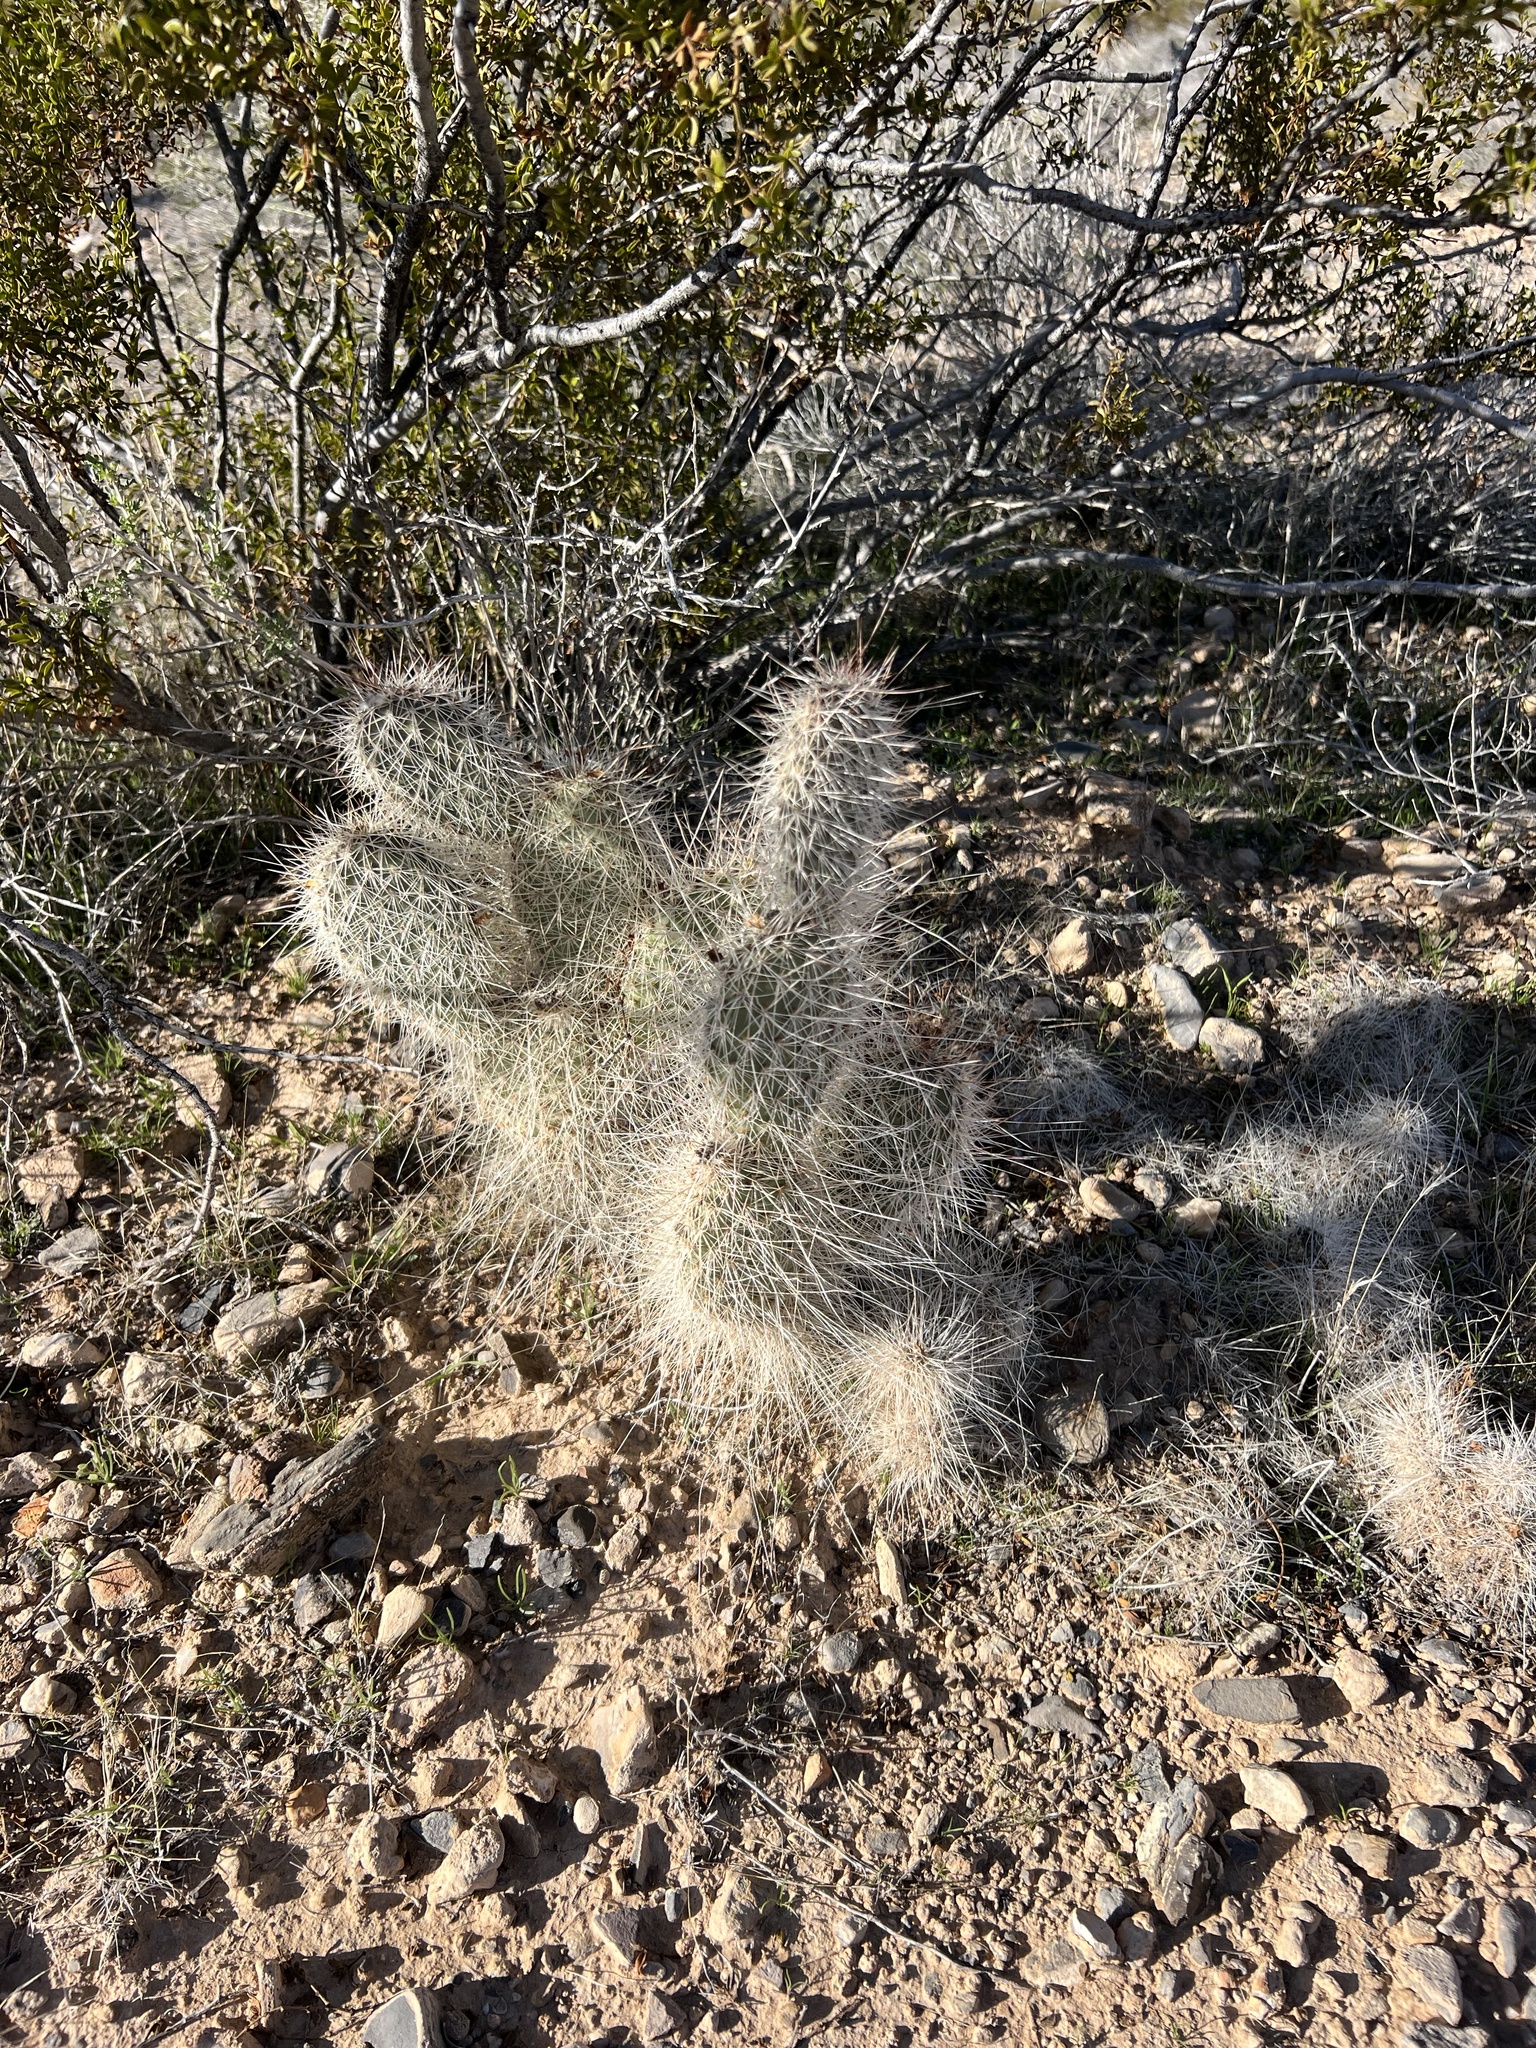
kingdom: Plantae
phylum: Tracheophyta
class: Magnoliopsida
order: Caryophyllales
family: Cactaceae
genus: Opuntia
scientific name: Opuntia polyacantha
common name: Plains prickly-pear
